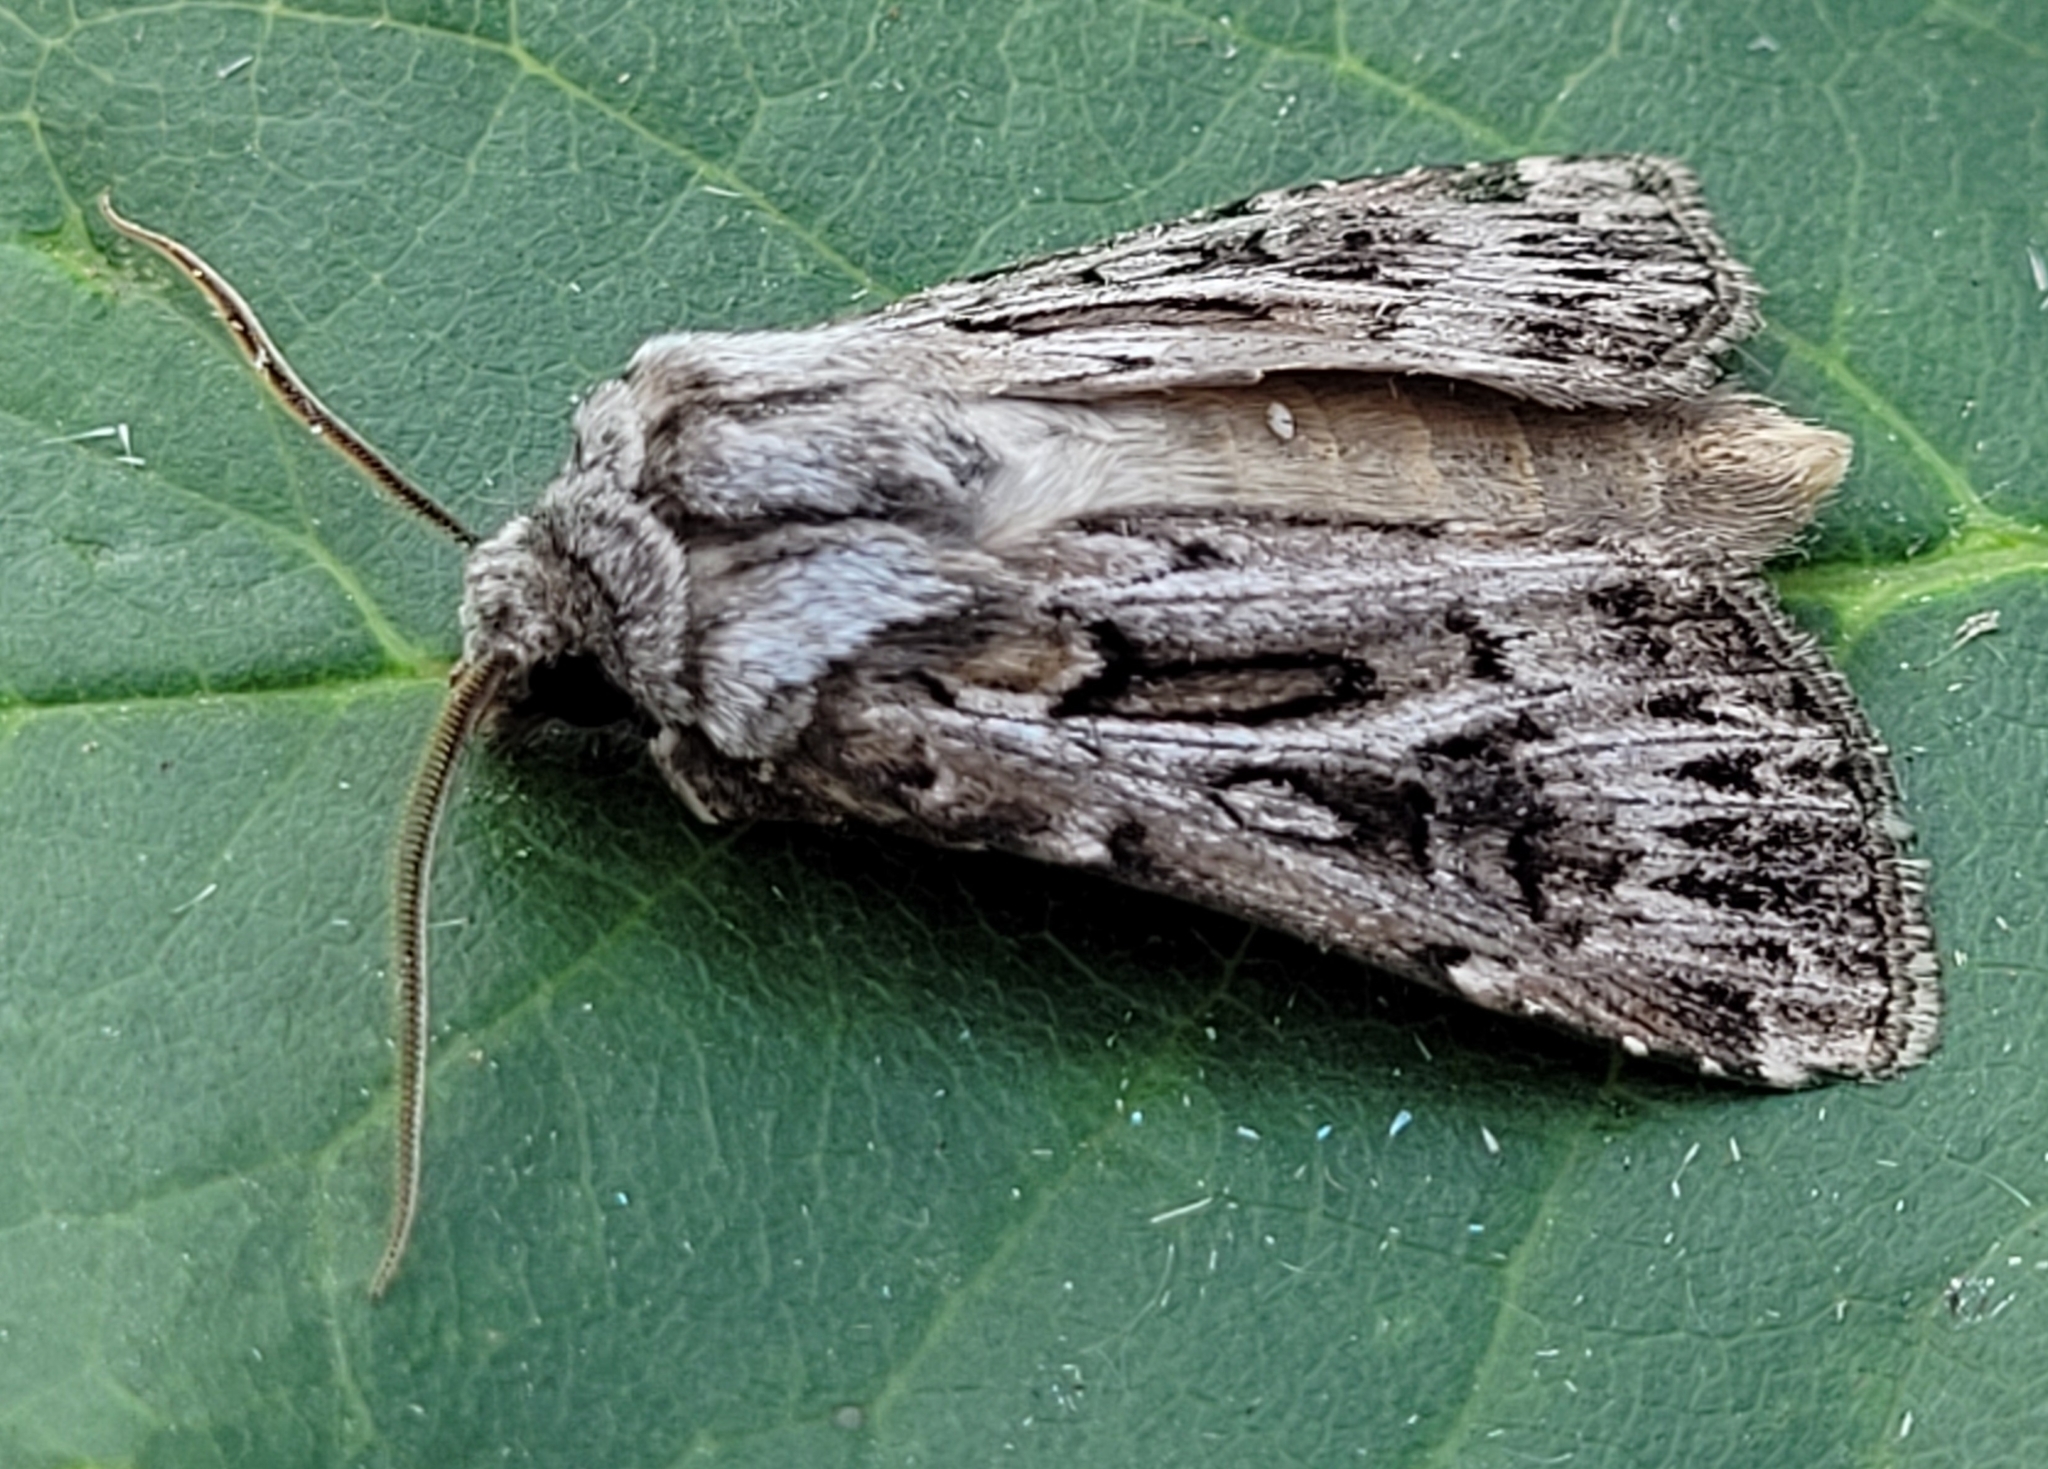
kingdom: Animalia
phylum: Arthropoda
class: Insecta
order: Lepidoptera
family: Noctuidae
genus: Agrotis
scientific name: Agrotis robustior
